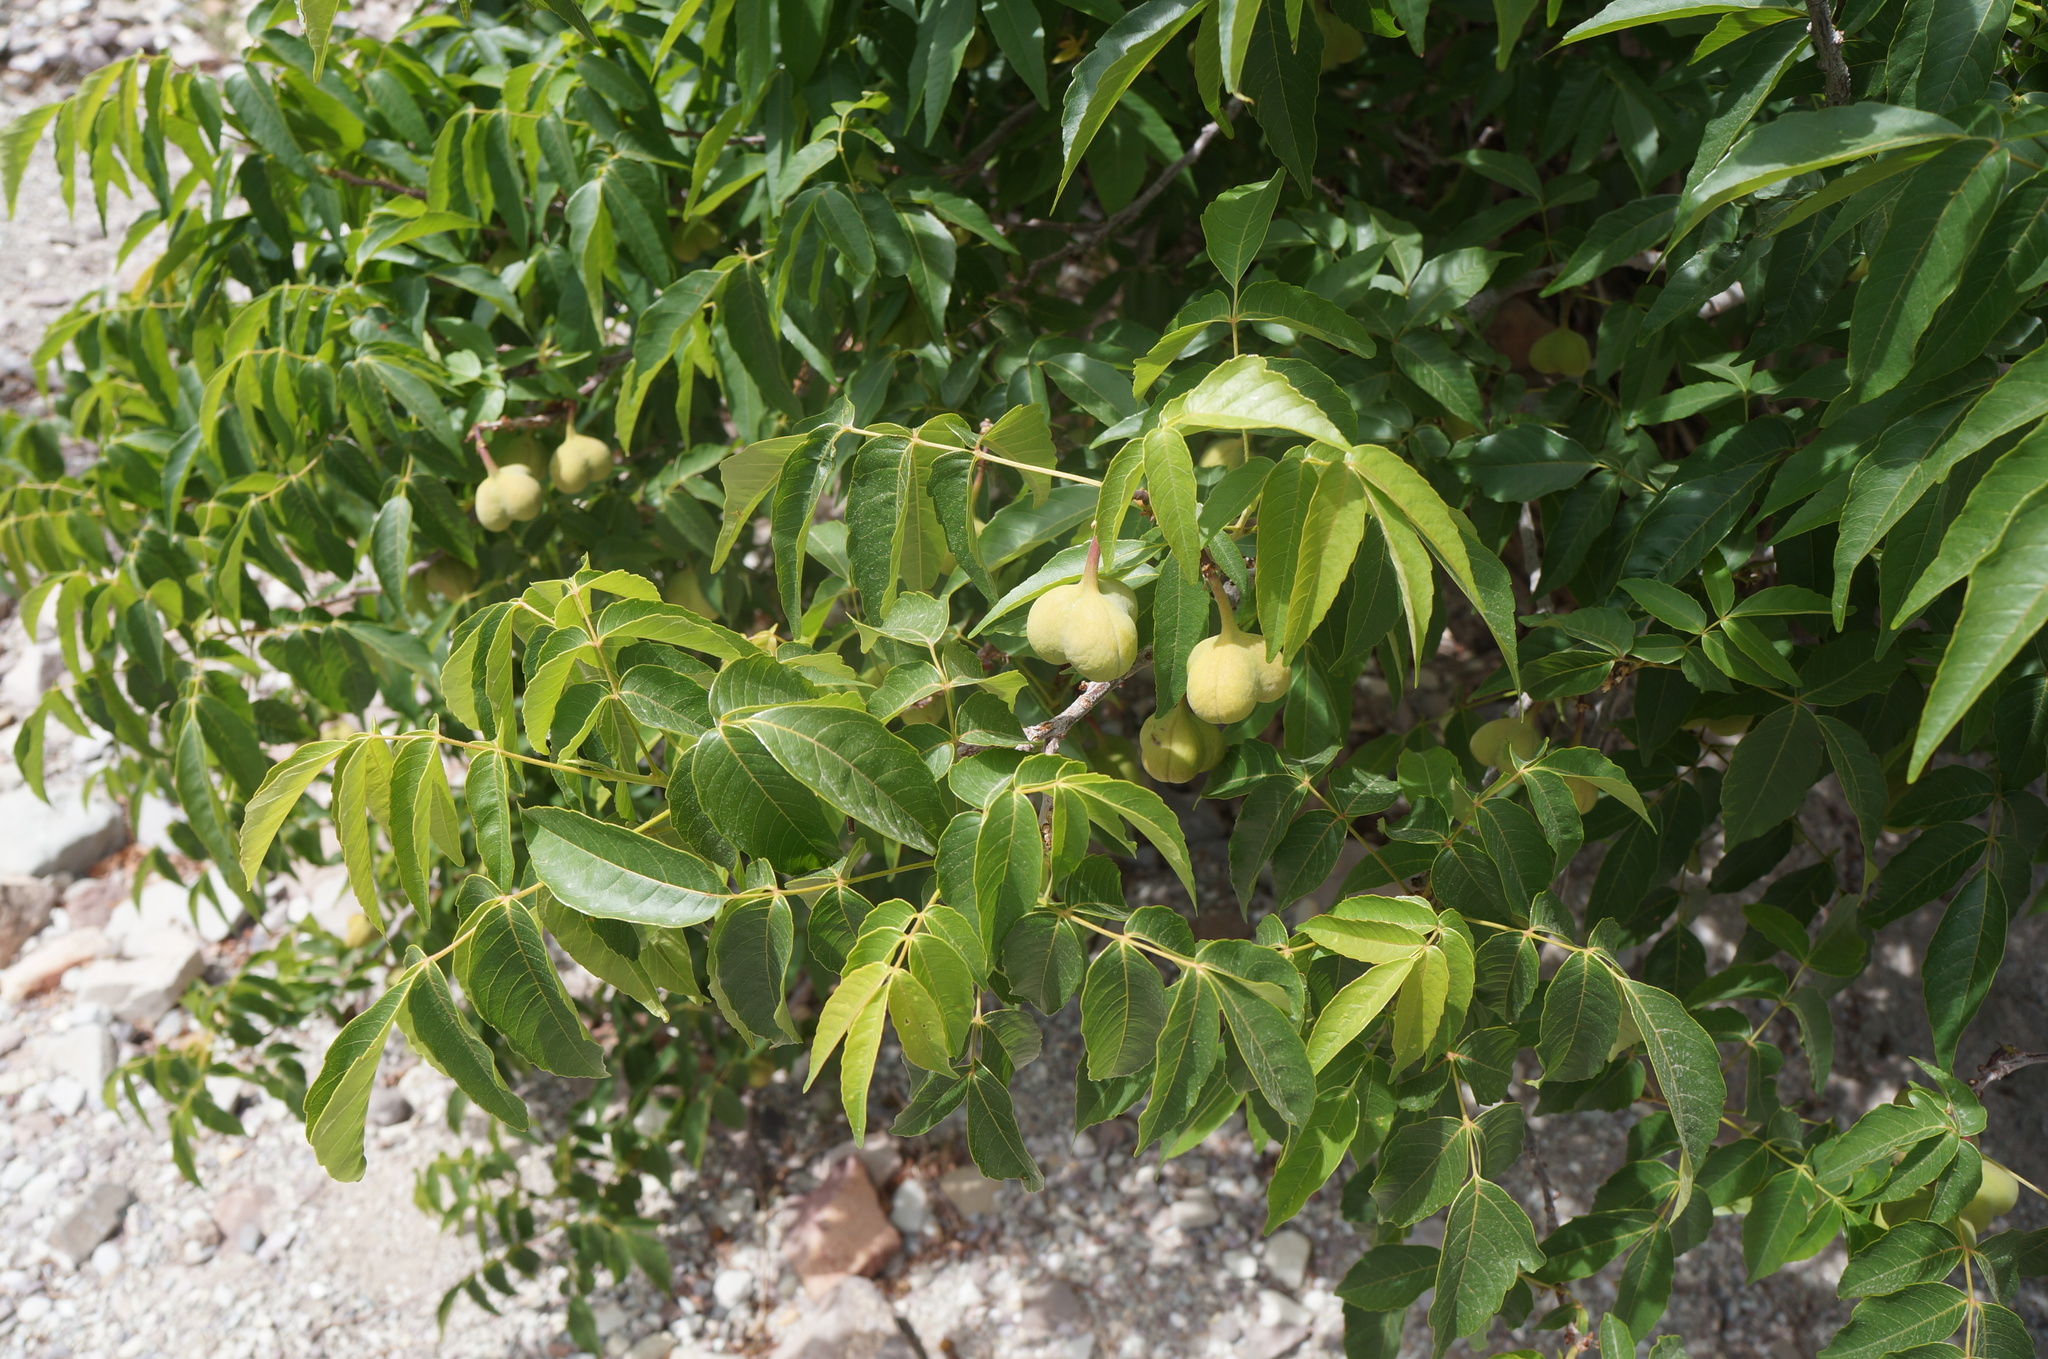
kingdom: Plantae
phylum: Tracheophyta
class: Magnoliopsida
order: Sapindales
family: Sapindaceae
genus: Ungnadia
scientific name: Ungnadia speciosa
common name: Texas-buckeye
